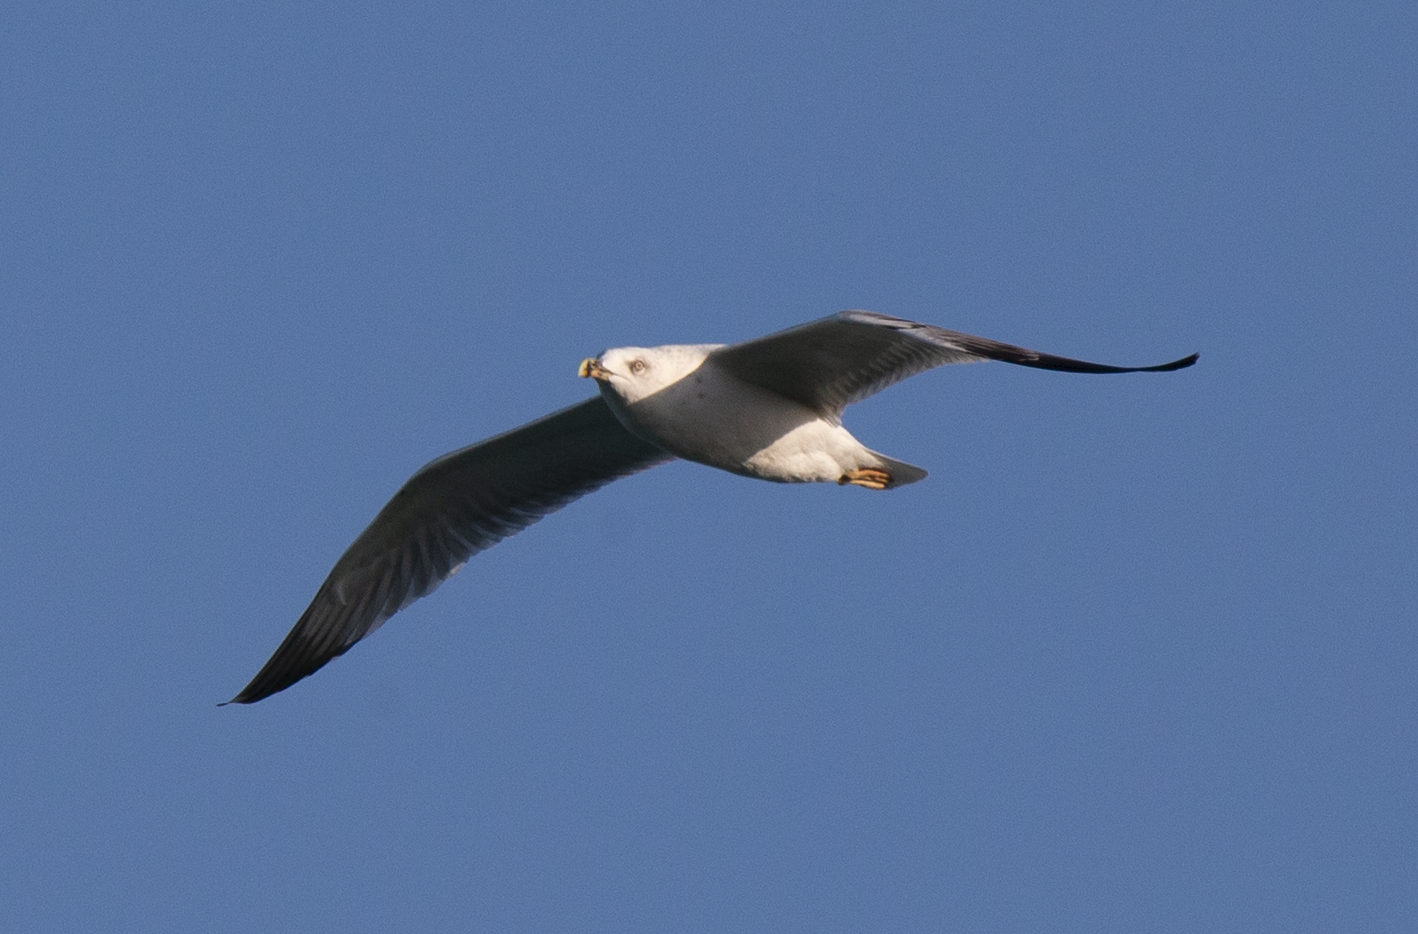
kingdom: Animalia
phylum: Chordata
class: Aves
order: Charadriiformes
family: Laridae
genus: Larus
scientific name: Larus michahellis
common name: Yellow-legged gull
